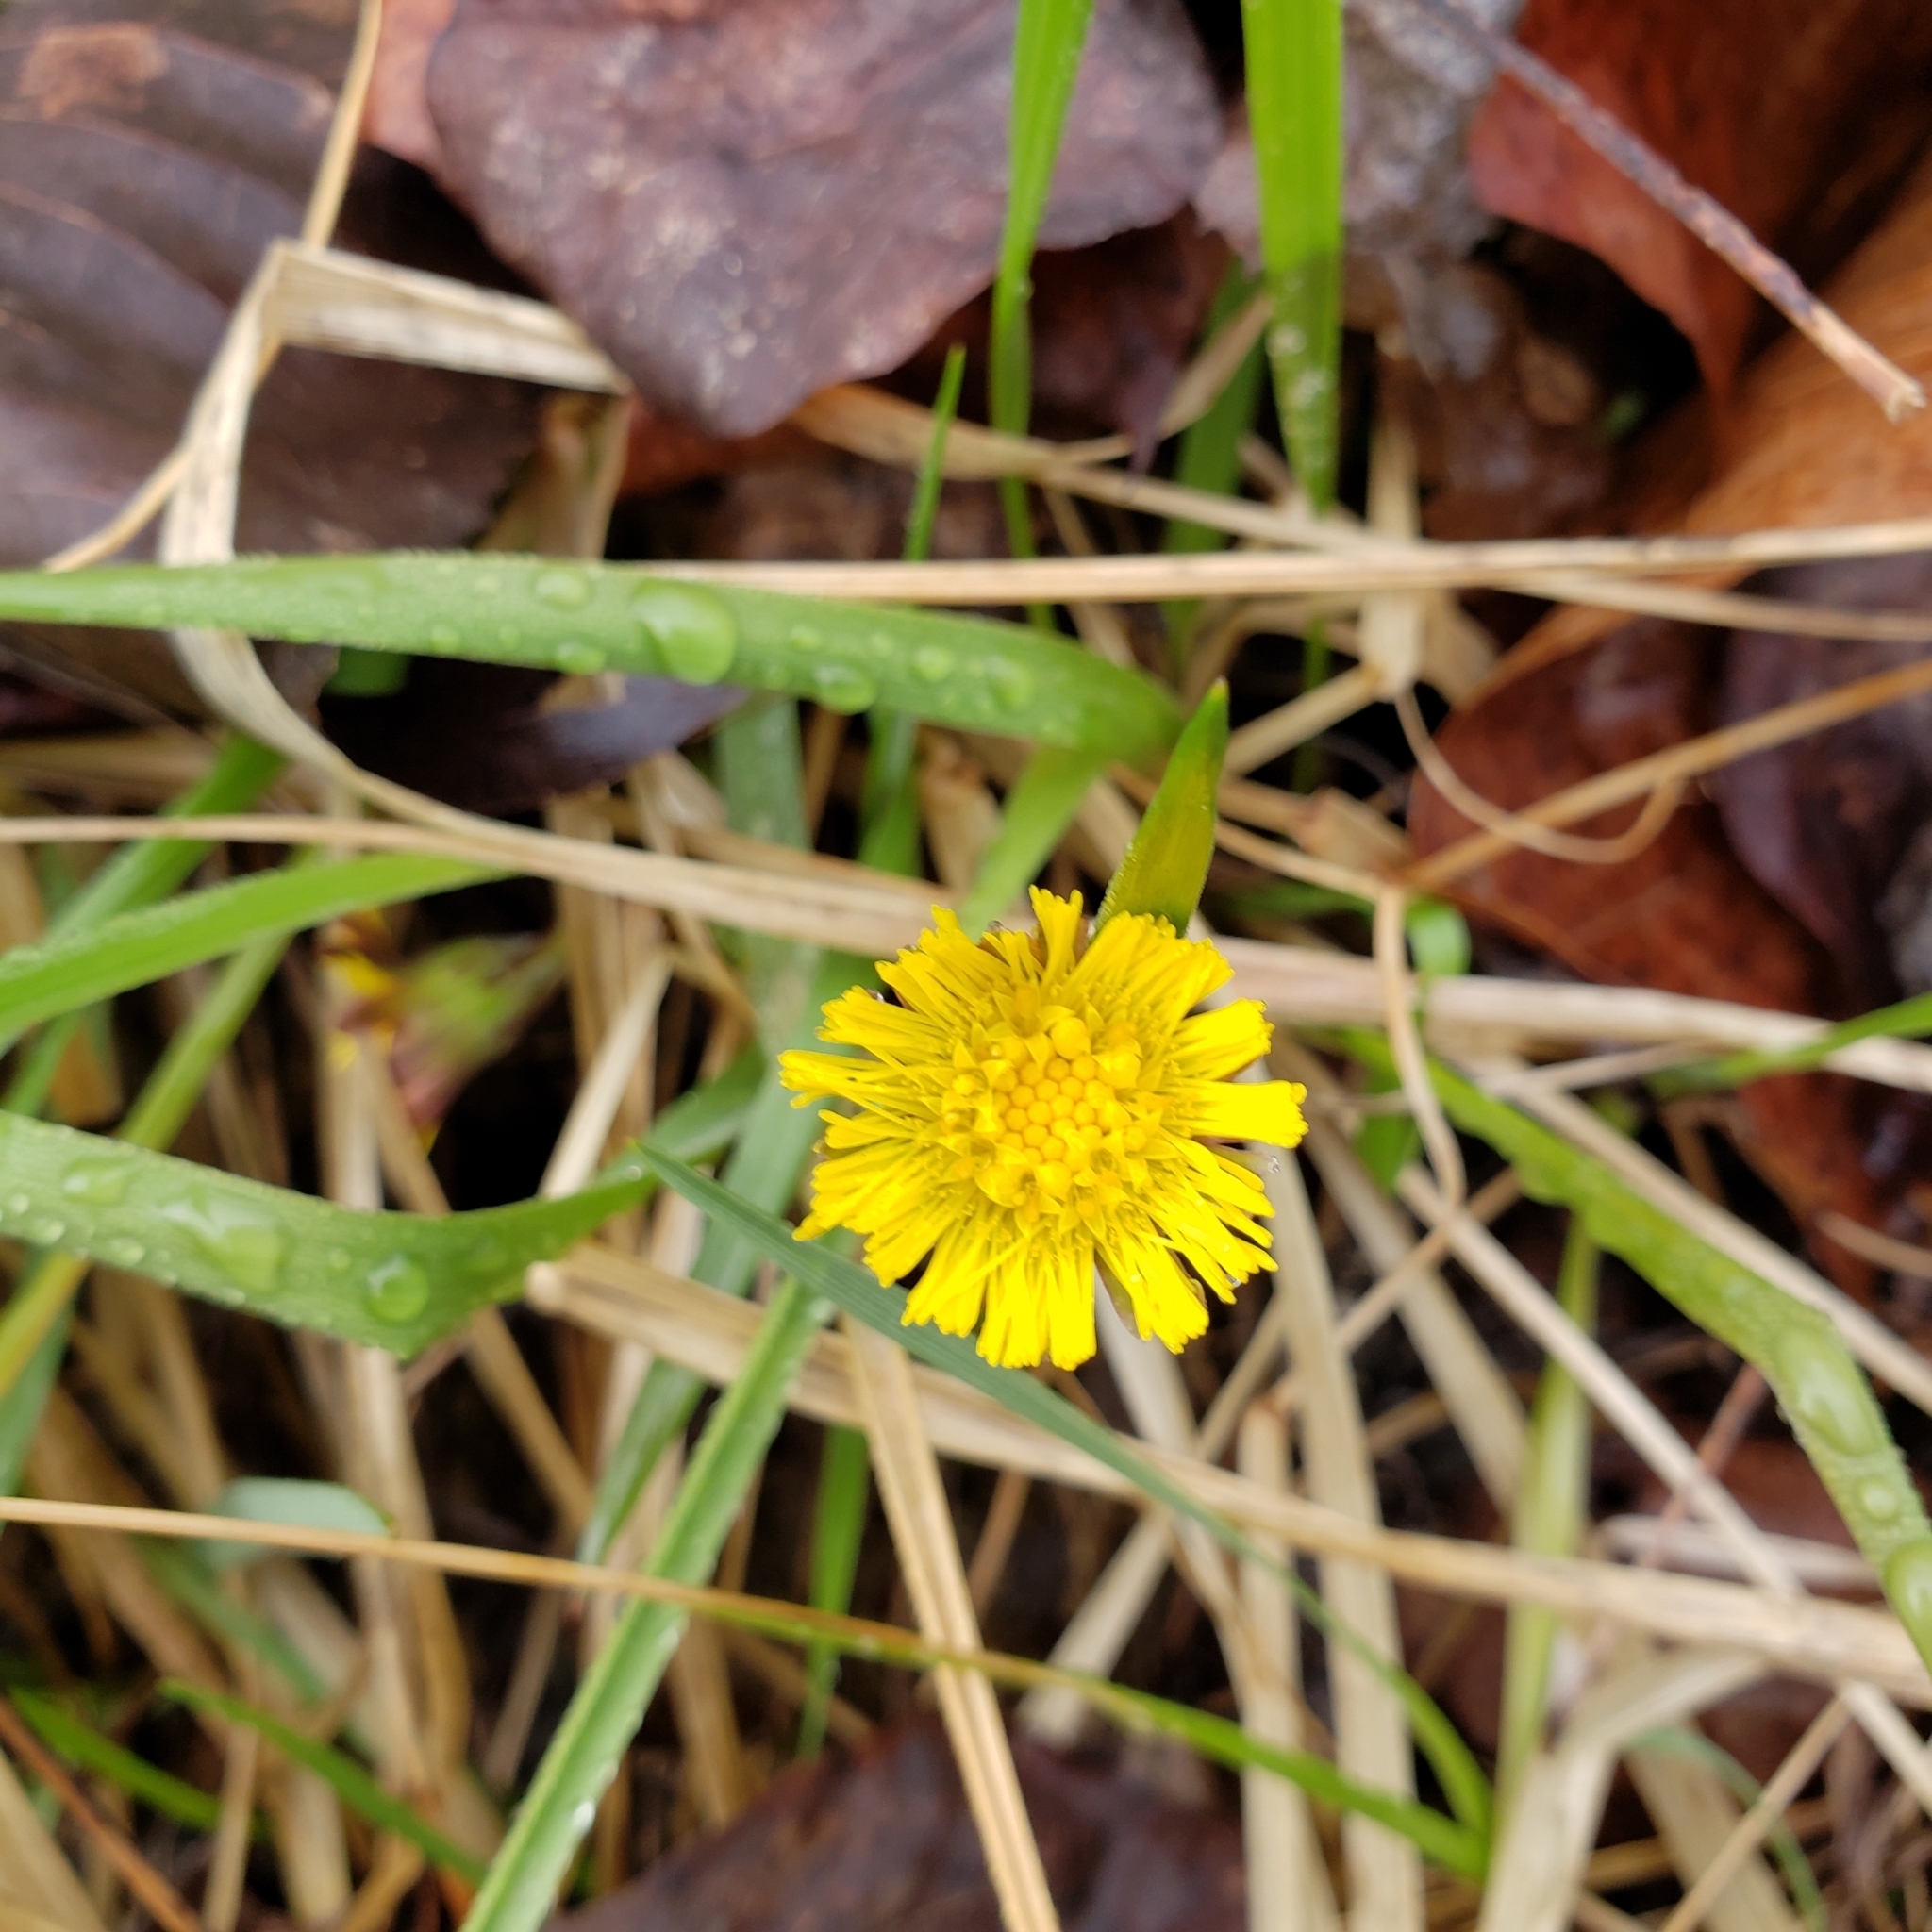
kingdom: Plantae
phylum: Tracheophyta
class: Magnoliopsida
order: Asterales
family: Asteraceae
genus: Tussilago
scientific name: Tussilago farfara
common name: Coltsfoot
